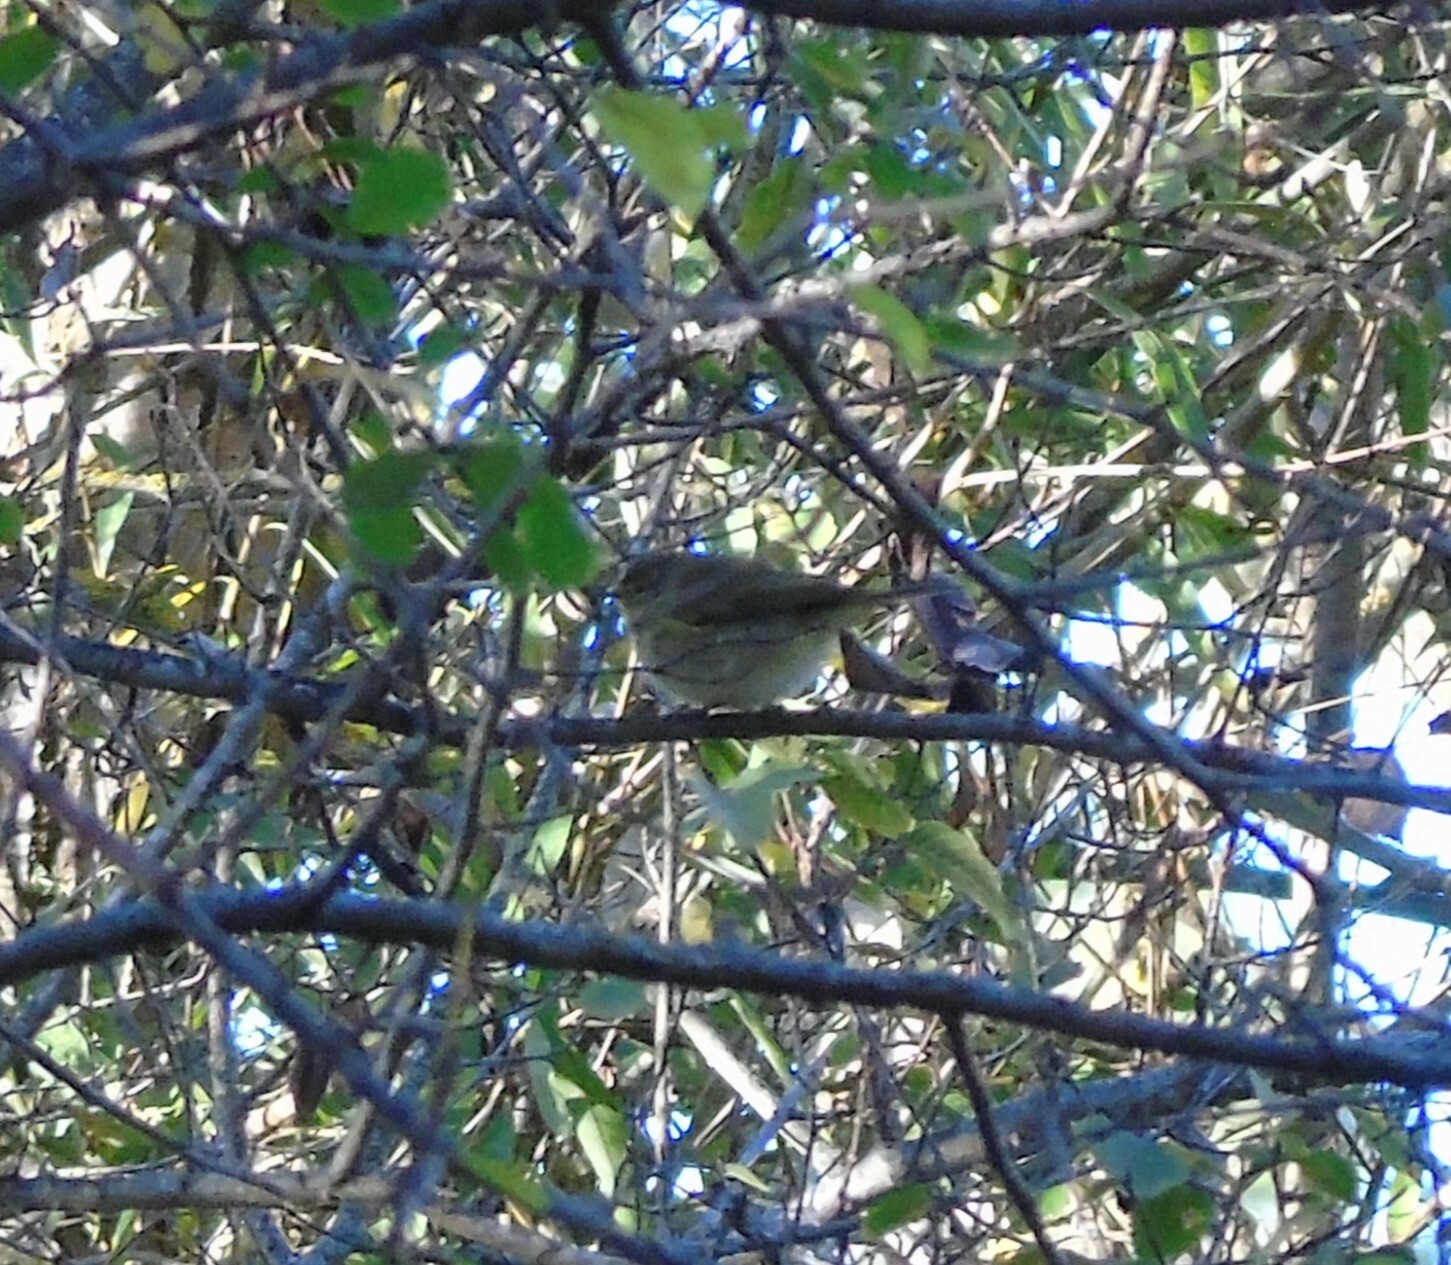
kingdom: Animalia
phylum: Chordata
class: Aves
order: Passeriformes
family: Phylloscopidae
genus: Phylloscopus
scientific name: Phylloscopus collybita
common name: Common chiffchaff
